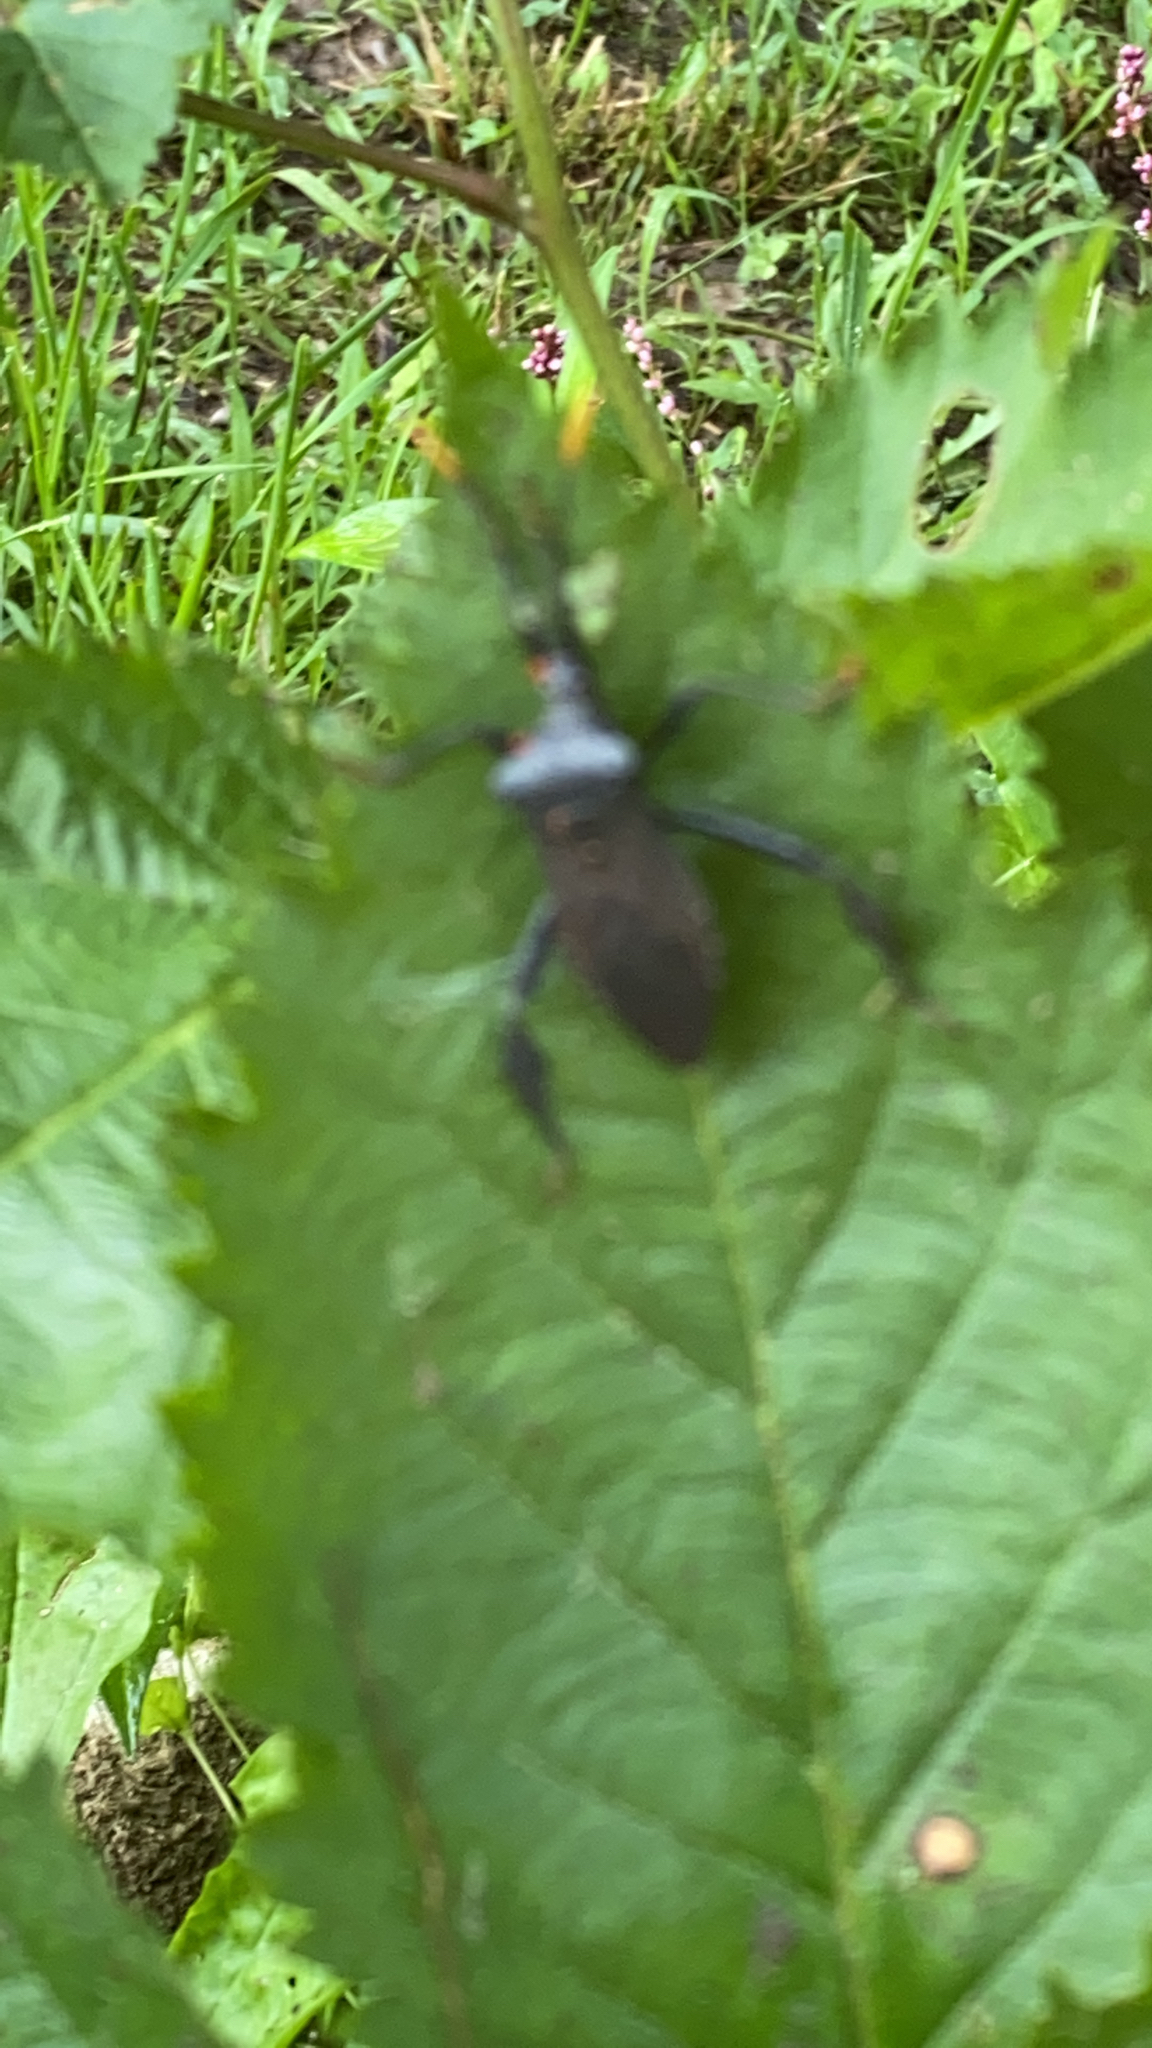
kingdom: Animalia
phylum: Arthropoda
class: Insecta
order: Hemiptera
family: Coreidae
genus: Acanthocephala
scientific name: Acanthocephala terminalis
